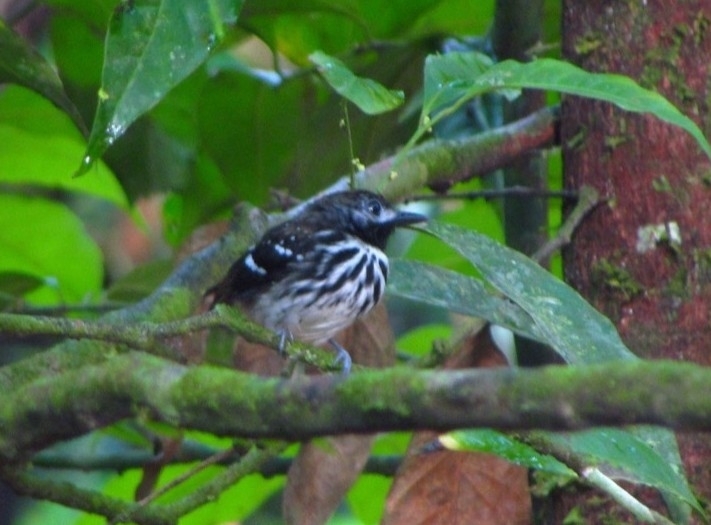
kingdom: Animalia
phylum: Chordata
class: Aves
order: Passeriformes
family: Thamnophilidae
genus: Hylophylax
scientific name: Hylophylax punctulatus
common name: Dot-backed antbird
